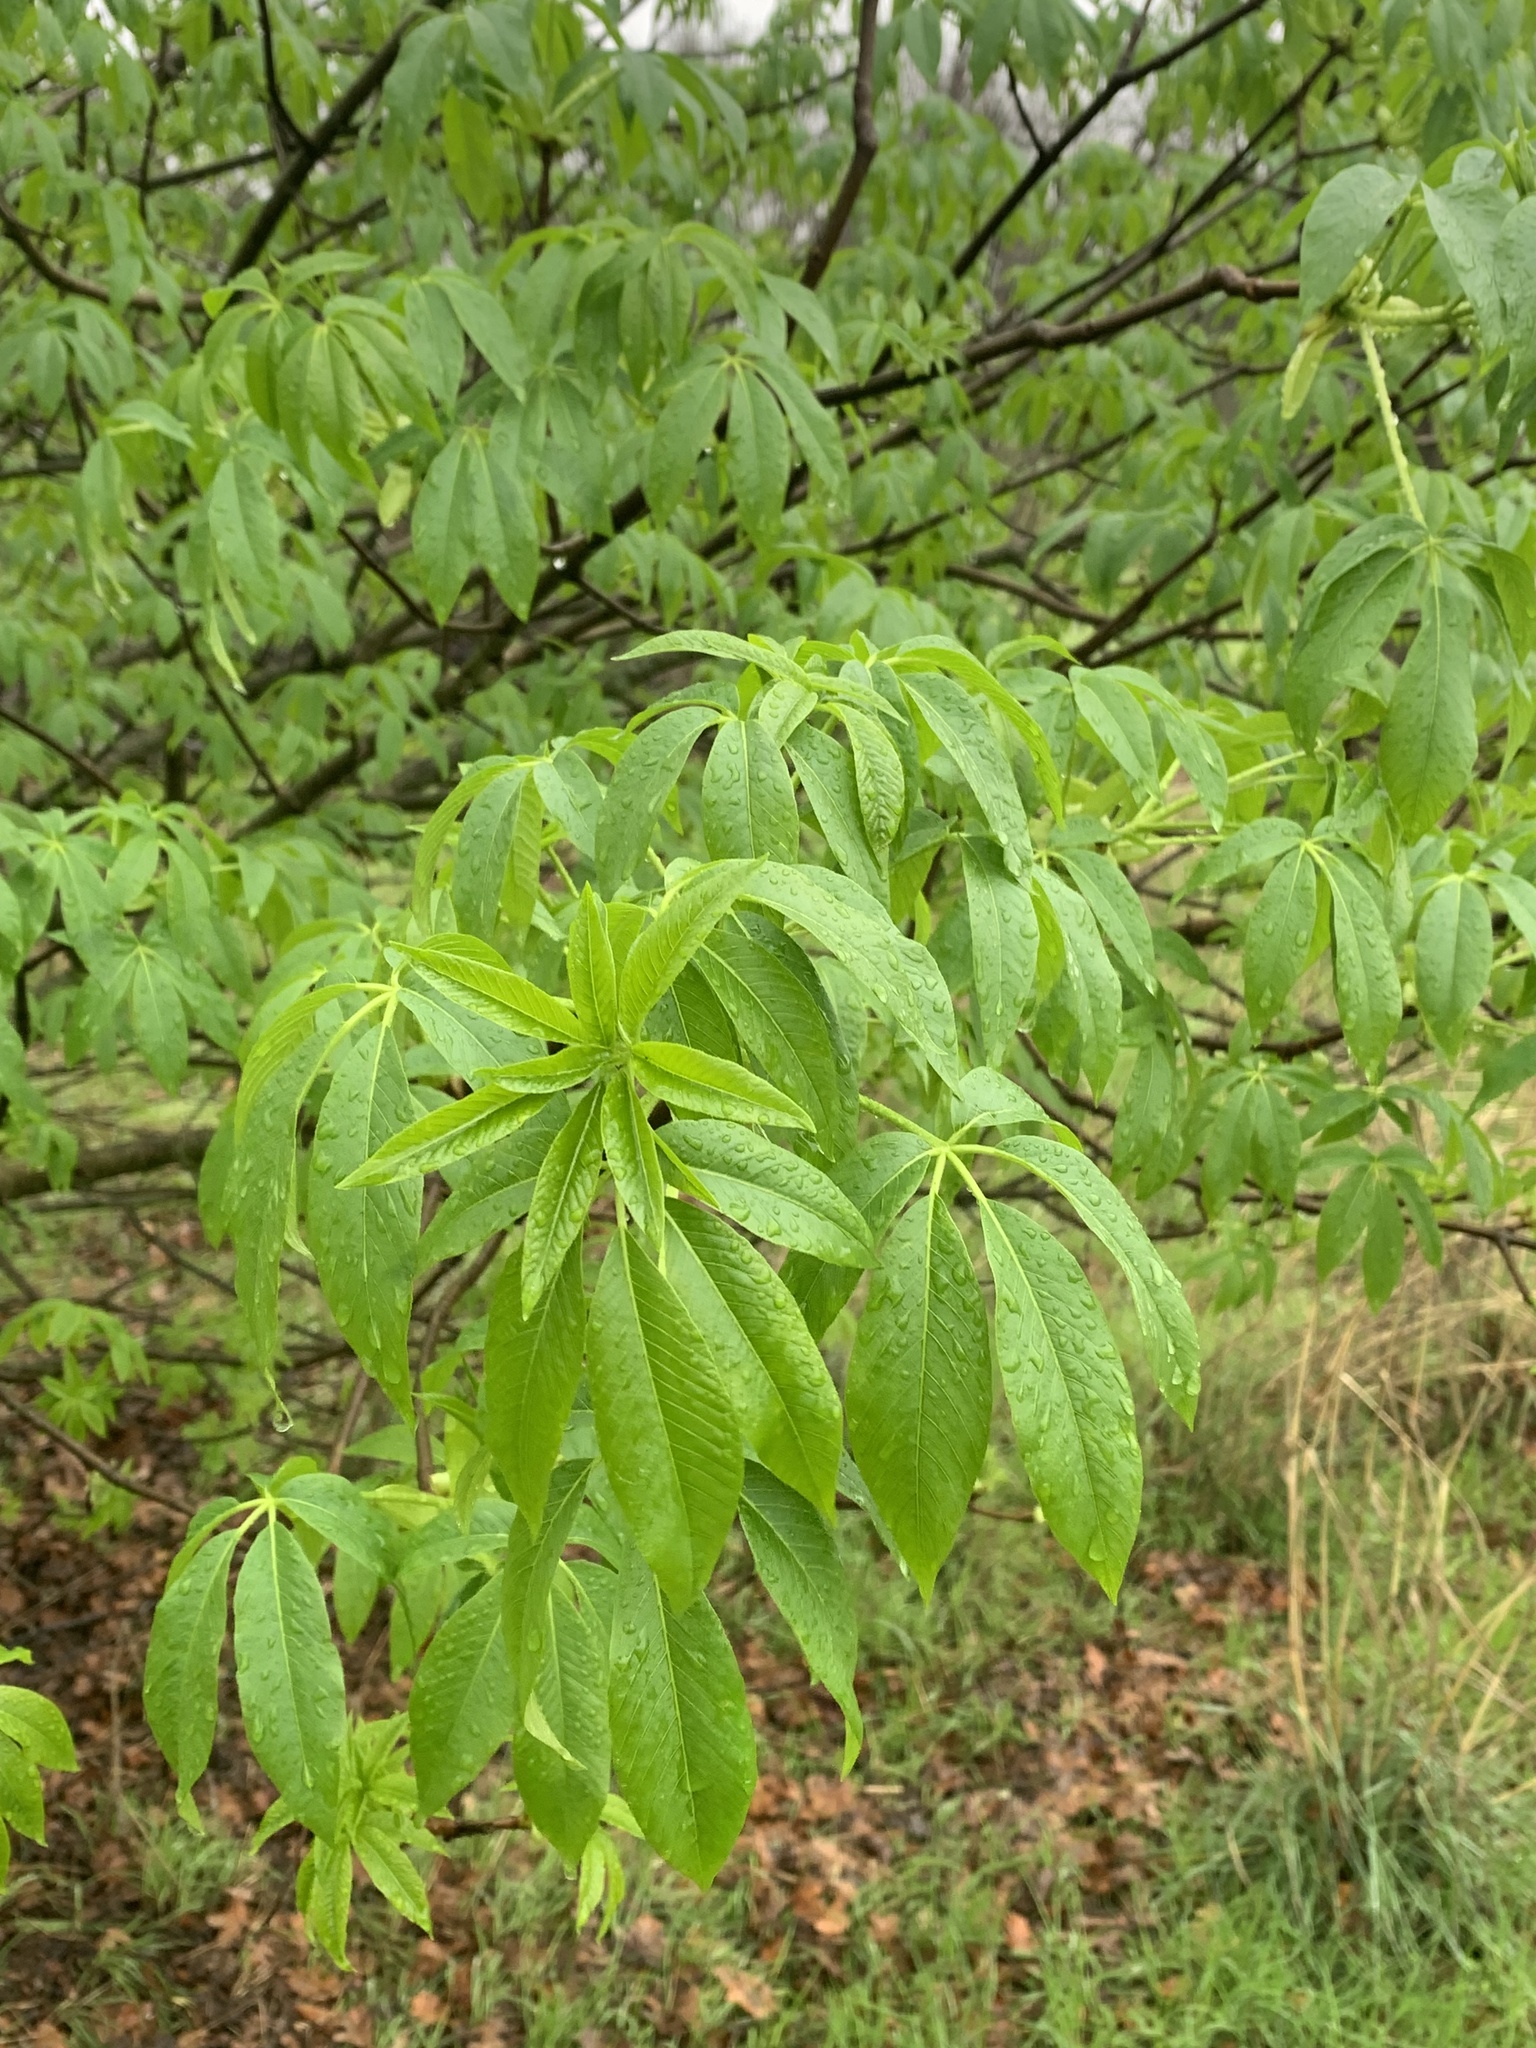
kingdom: Plantae
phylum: Tracheophyta
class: Magnoliopsida
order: Sapindales
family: Sapindaceae
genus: Aesculus
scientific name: Aesculus californica
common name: California buckeye
